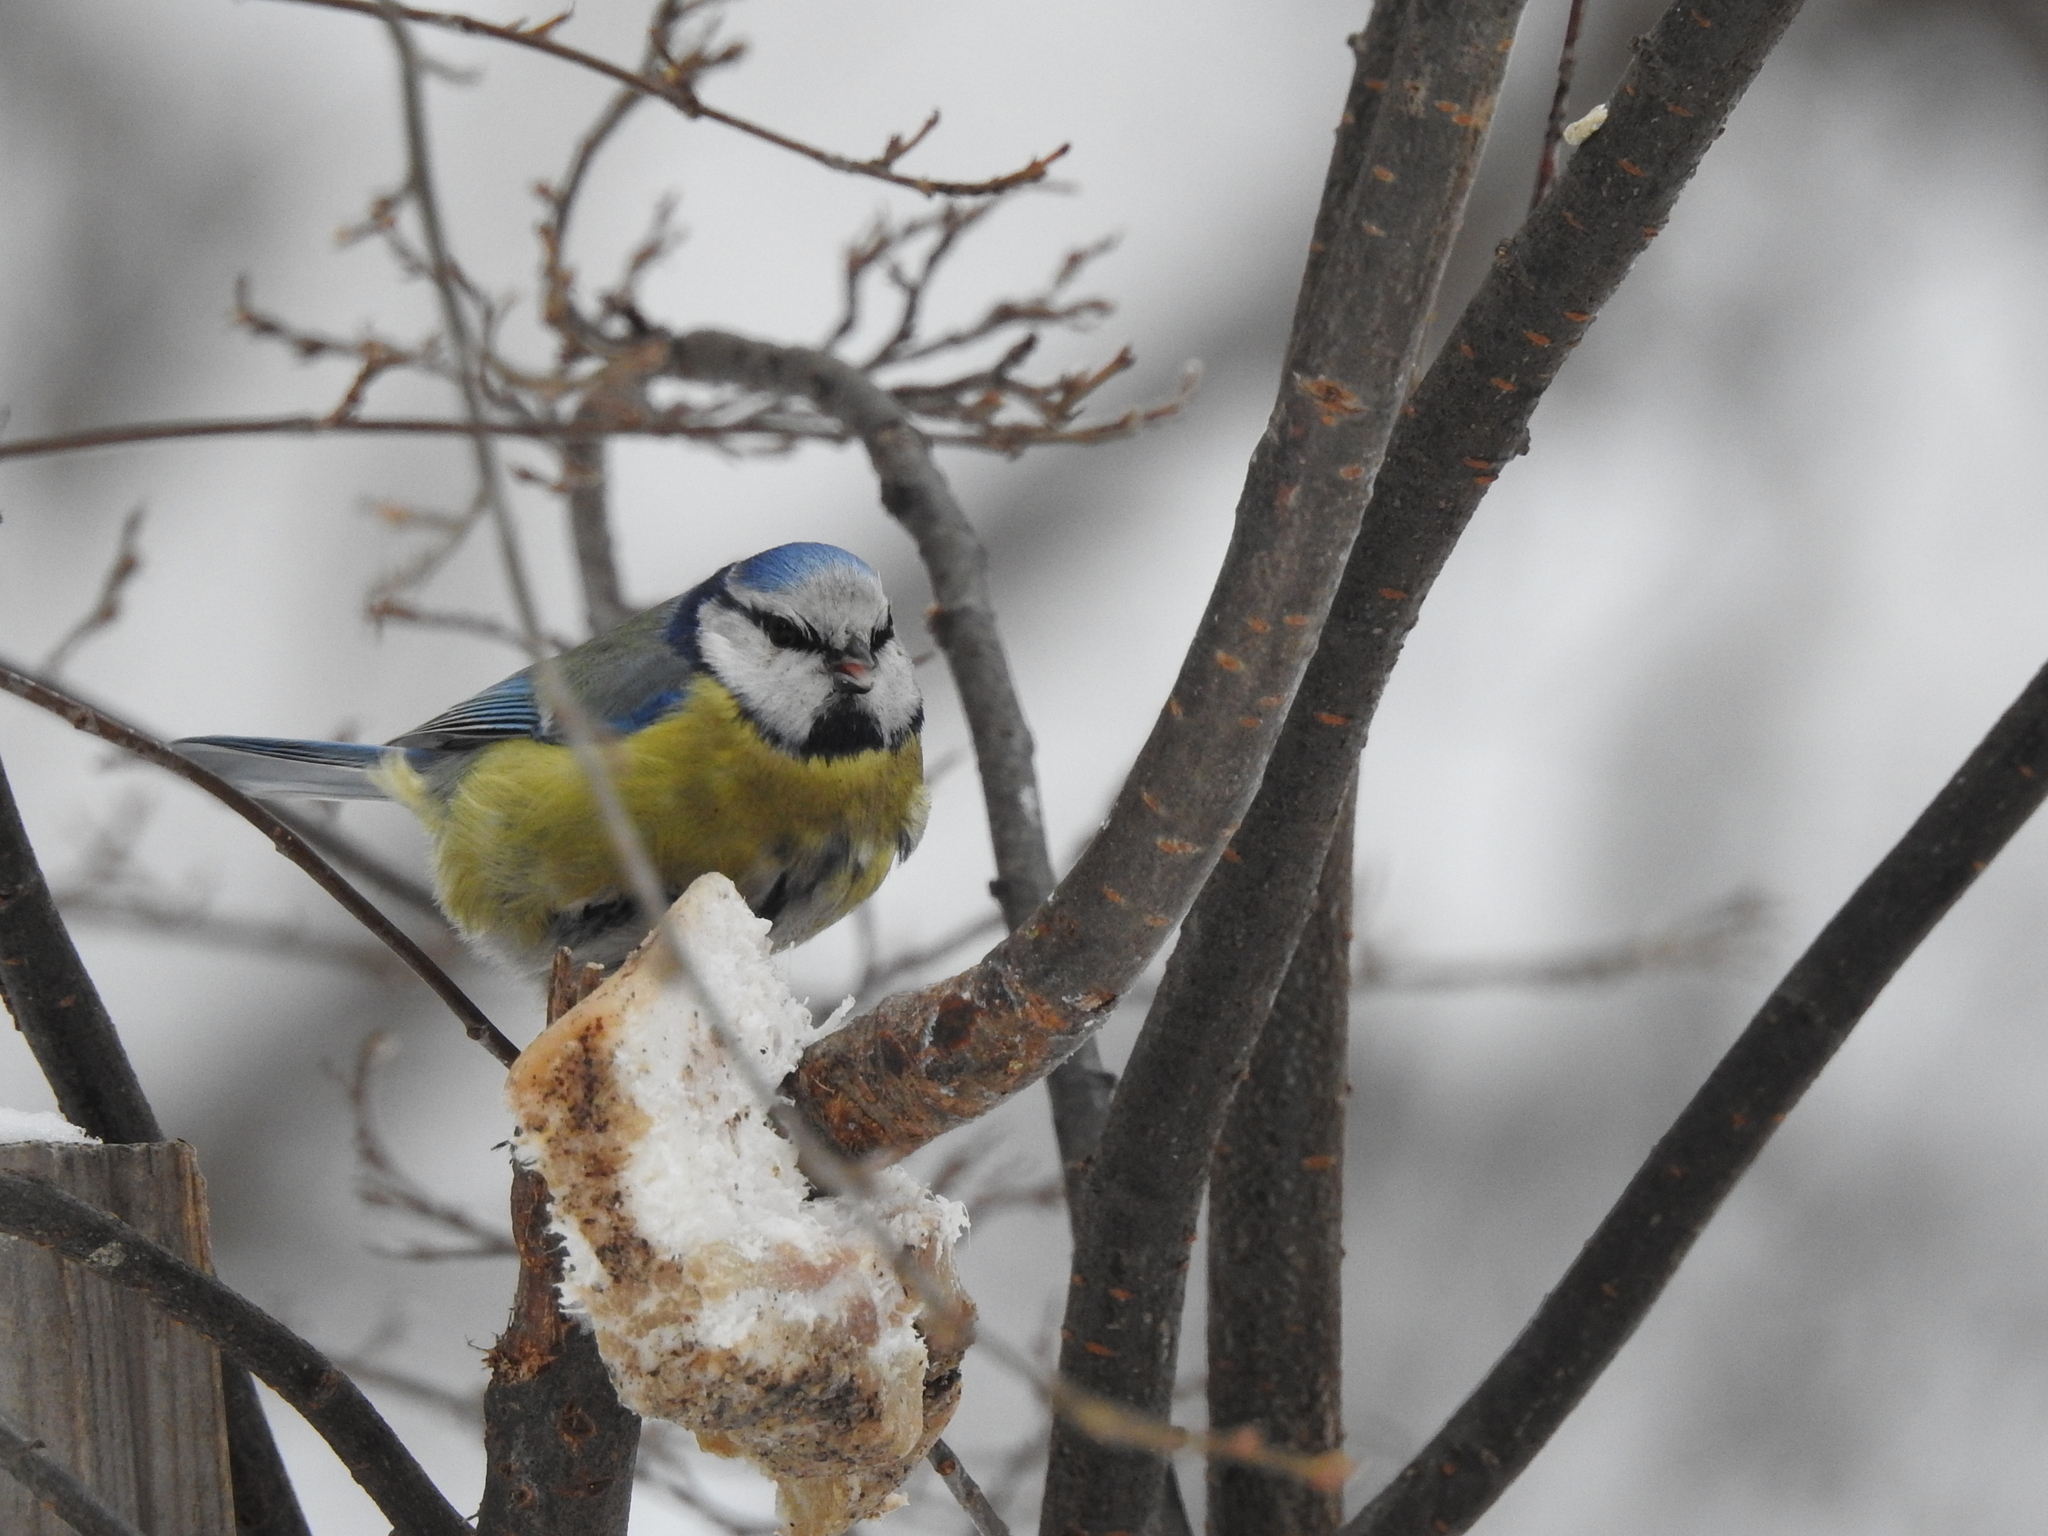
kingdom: Animalia
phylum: Chordata
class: Aves
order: Passeriformes
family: Paridae
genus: Cyanistes
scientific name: Cyanistes caeruleus
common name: Eurasian blue tit
